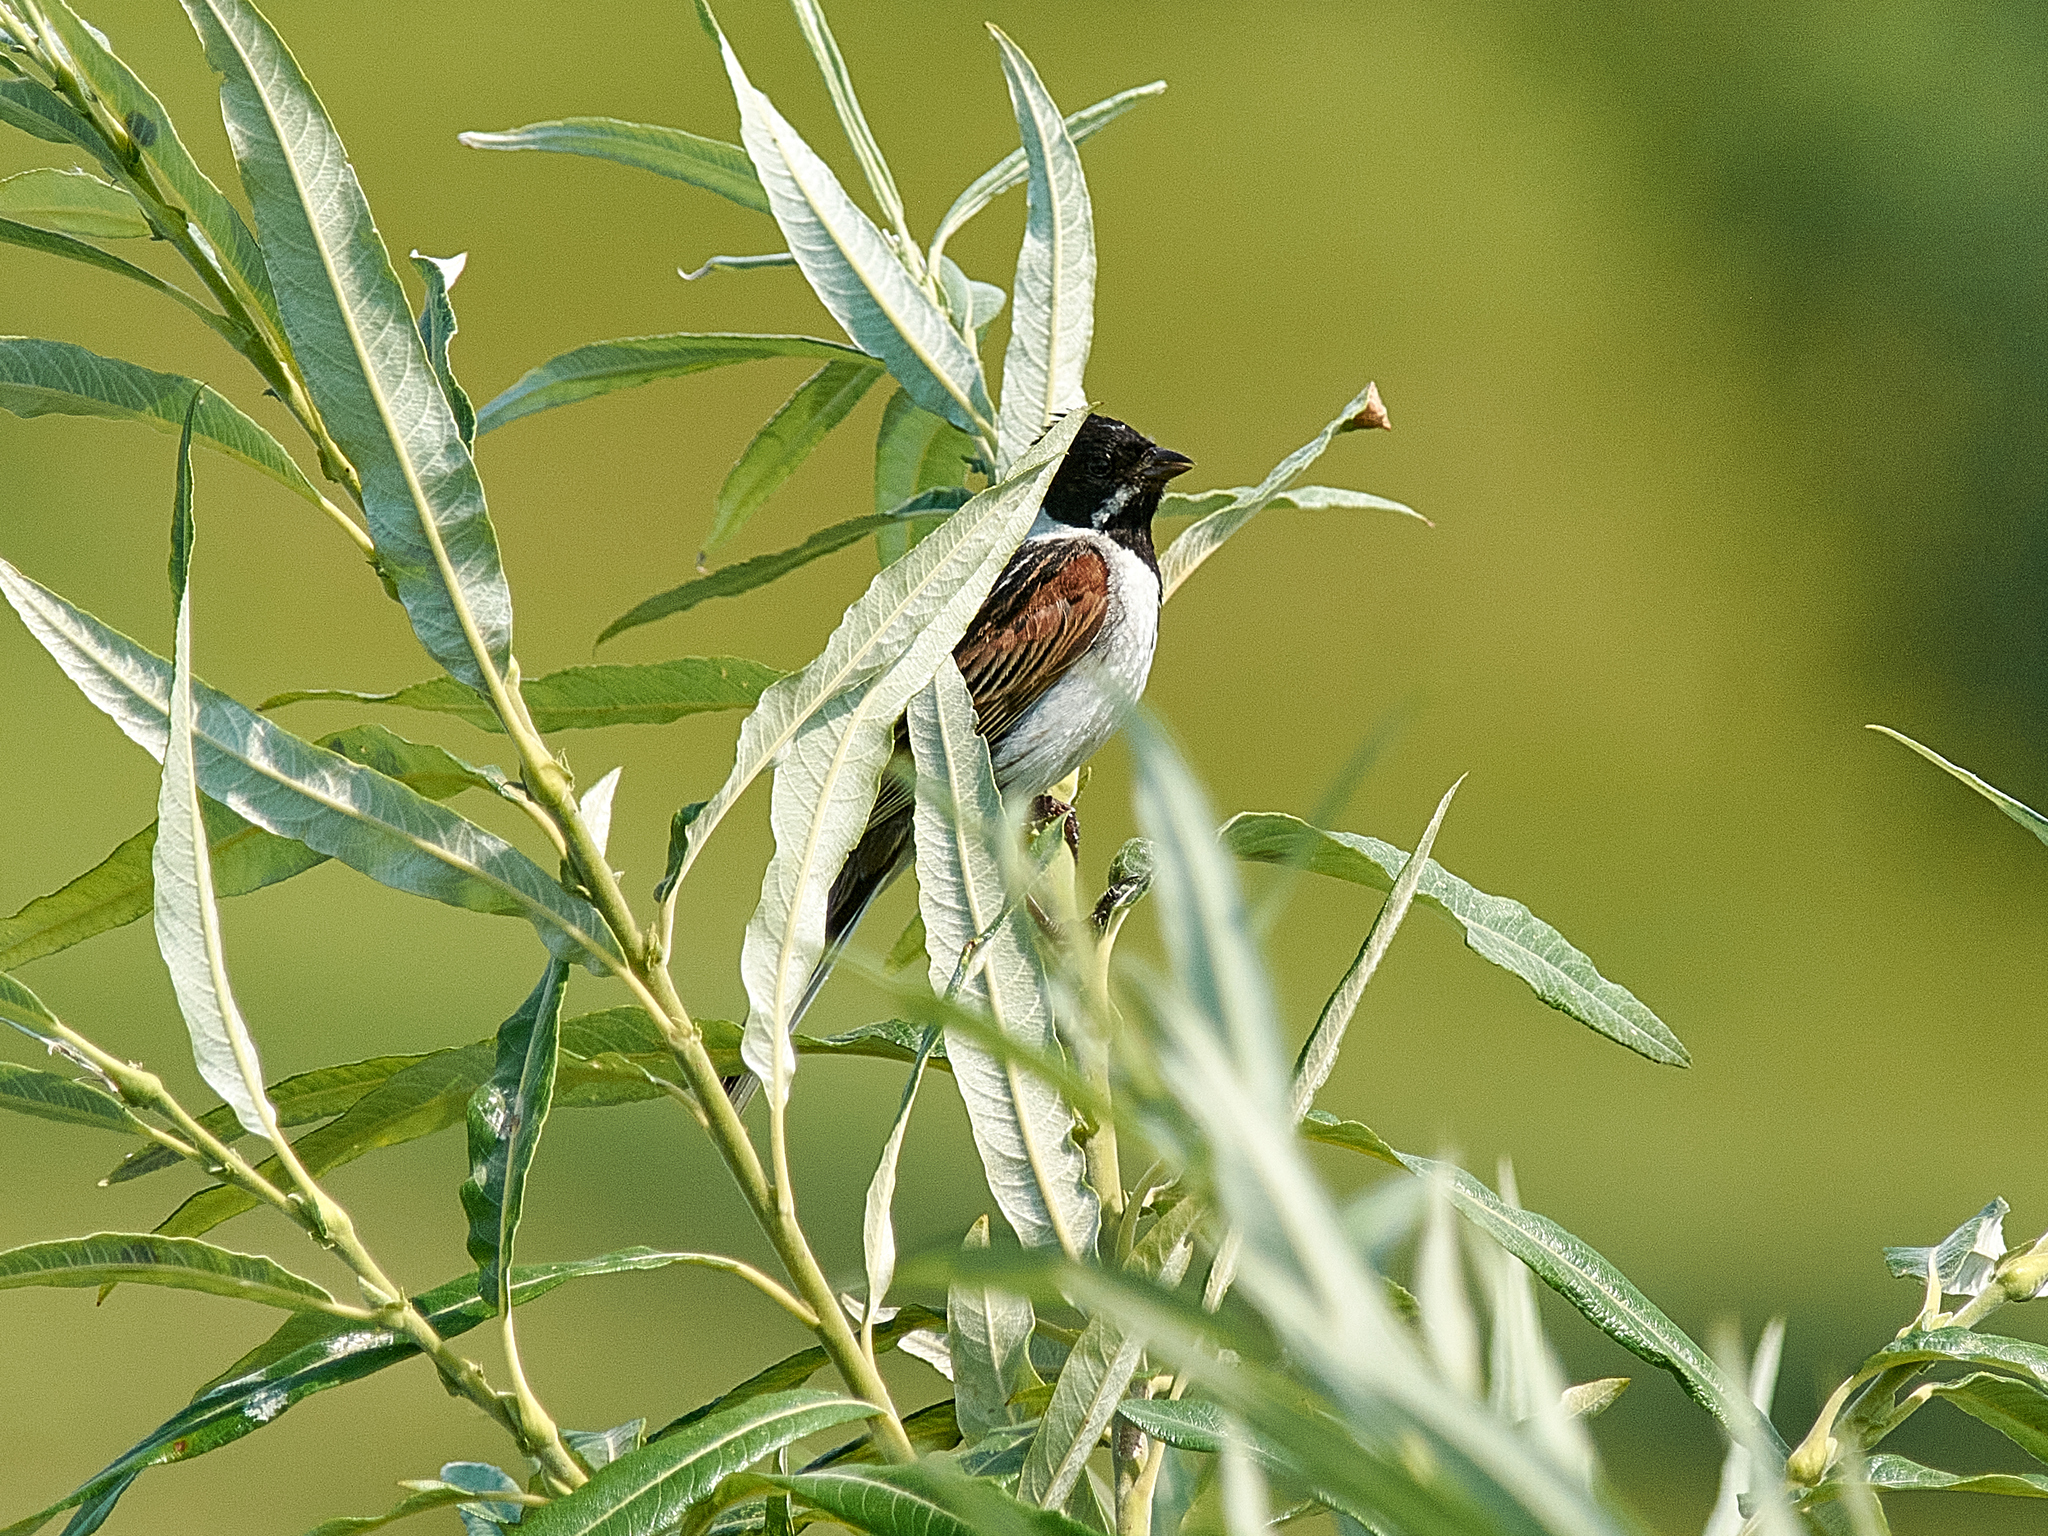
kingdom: Animalia
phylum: Chordata
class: Aves
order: Passeriformes
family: Emberizidae
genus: Emberiza
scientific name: Emberiza schoeniclus
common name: Reed bunting
